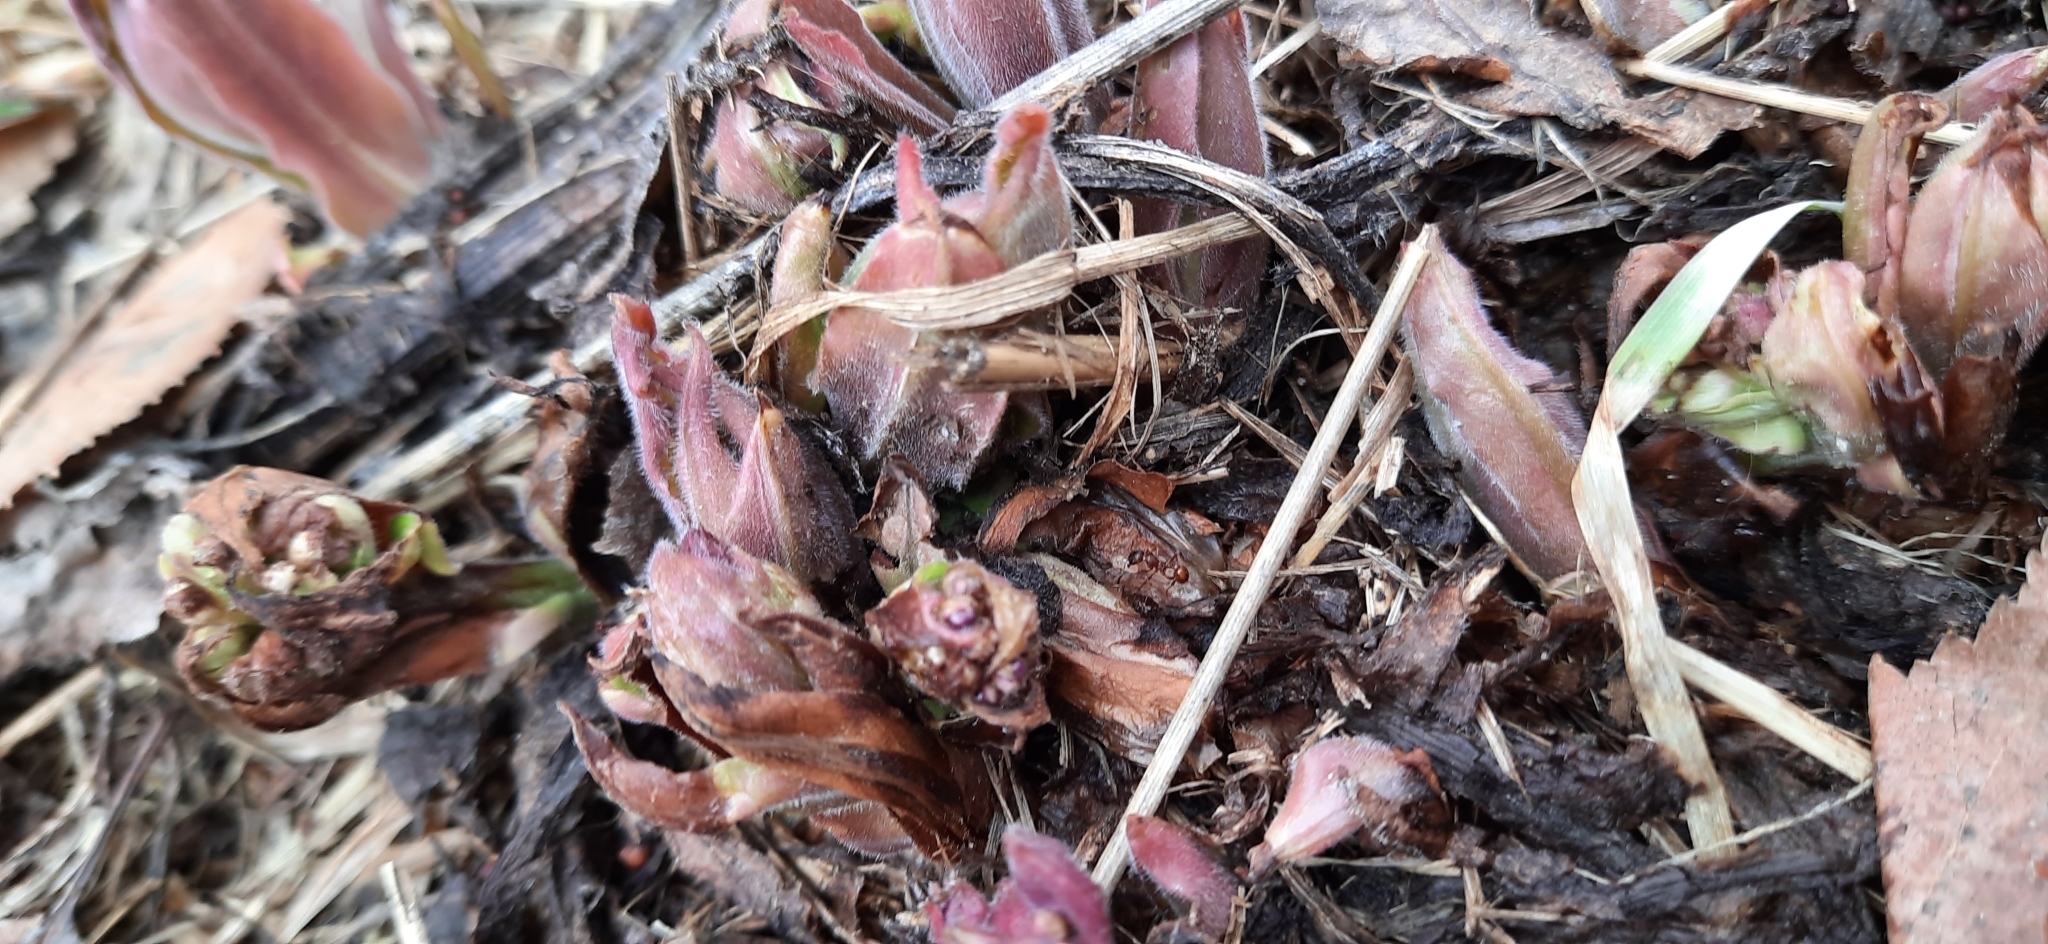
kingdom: Plantae
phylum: Tracheophyta
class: Magnoliopsida
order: Boraginales
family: Boraginaceae
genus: Pulmonaria
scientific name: Pulmonaria mollis
